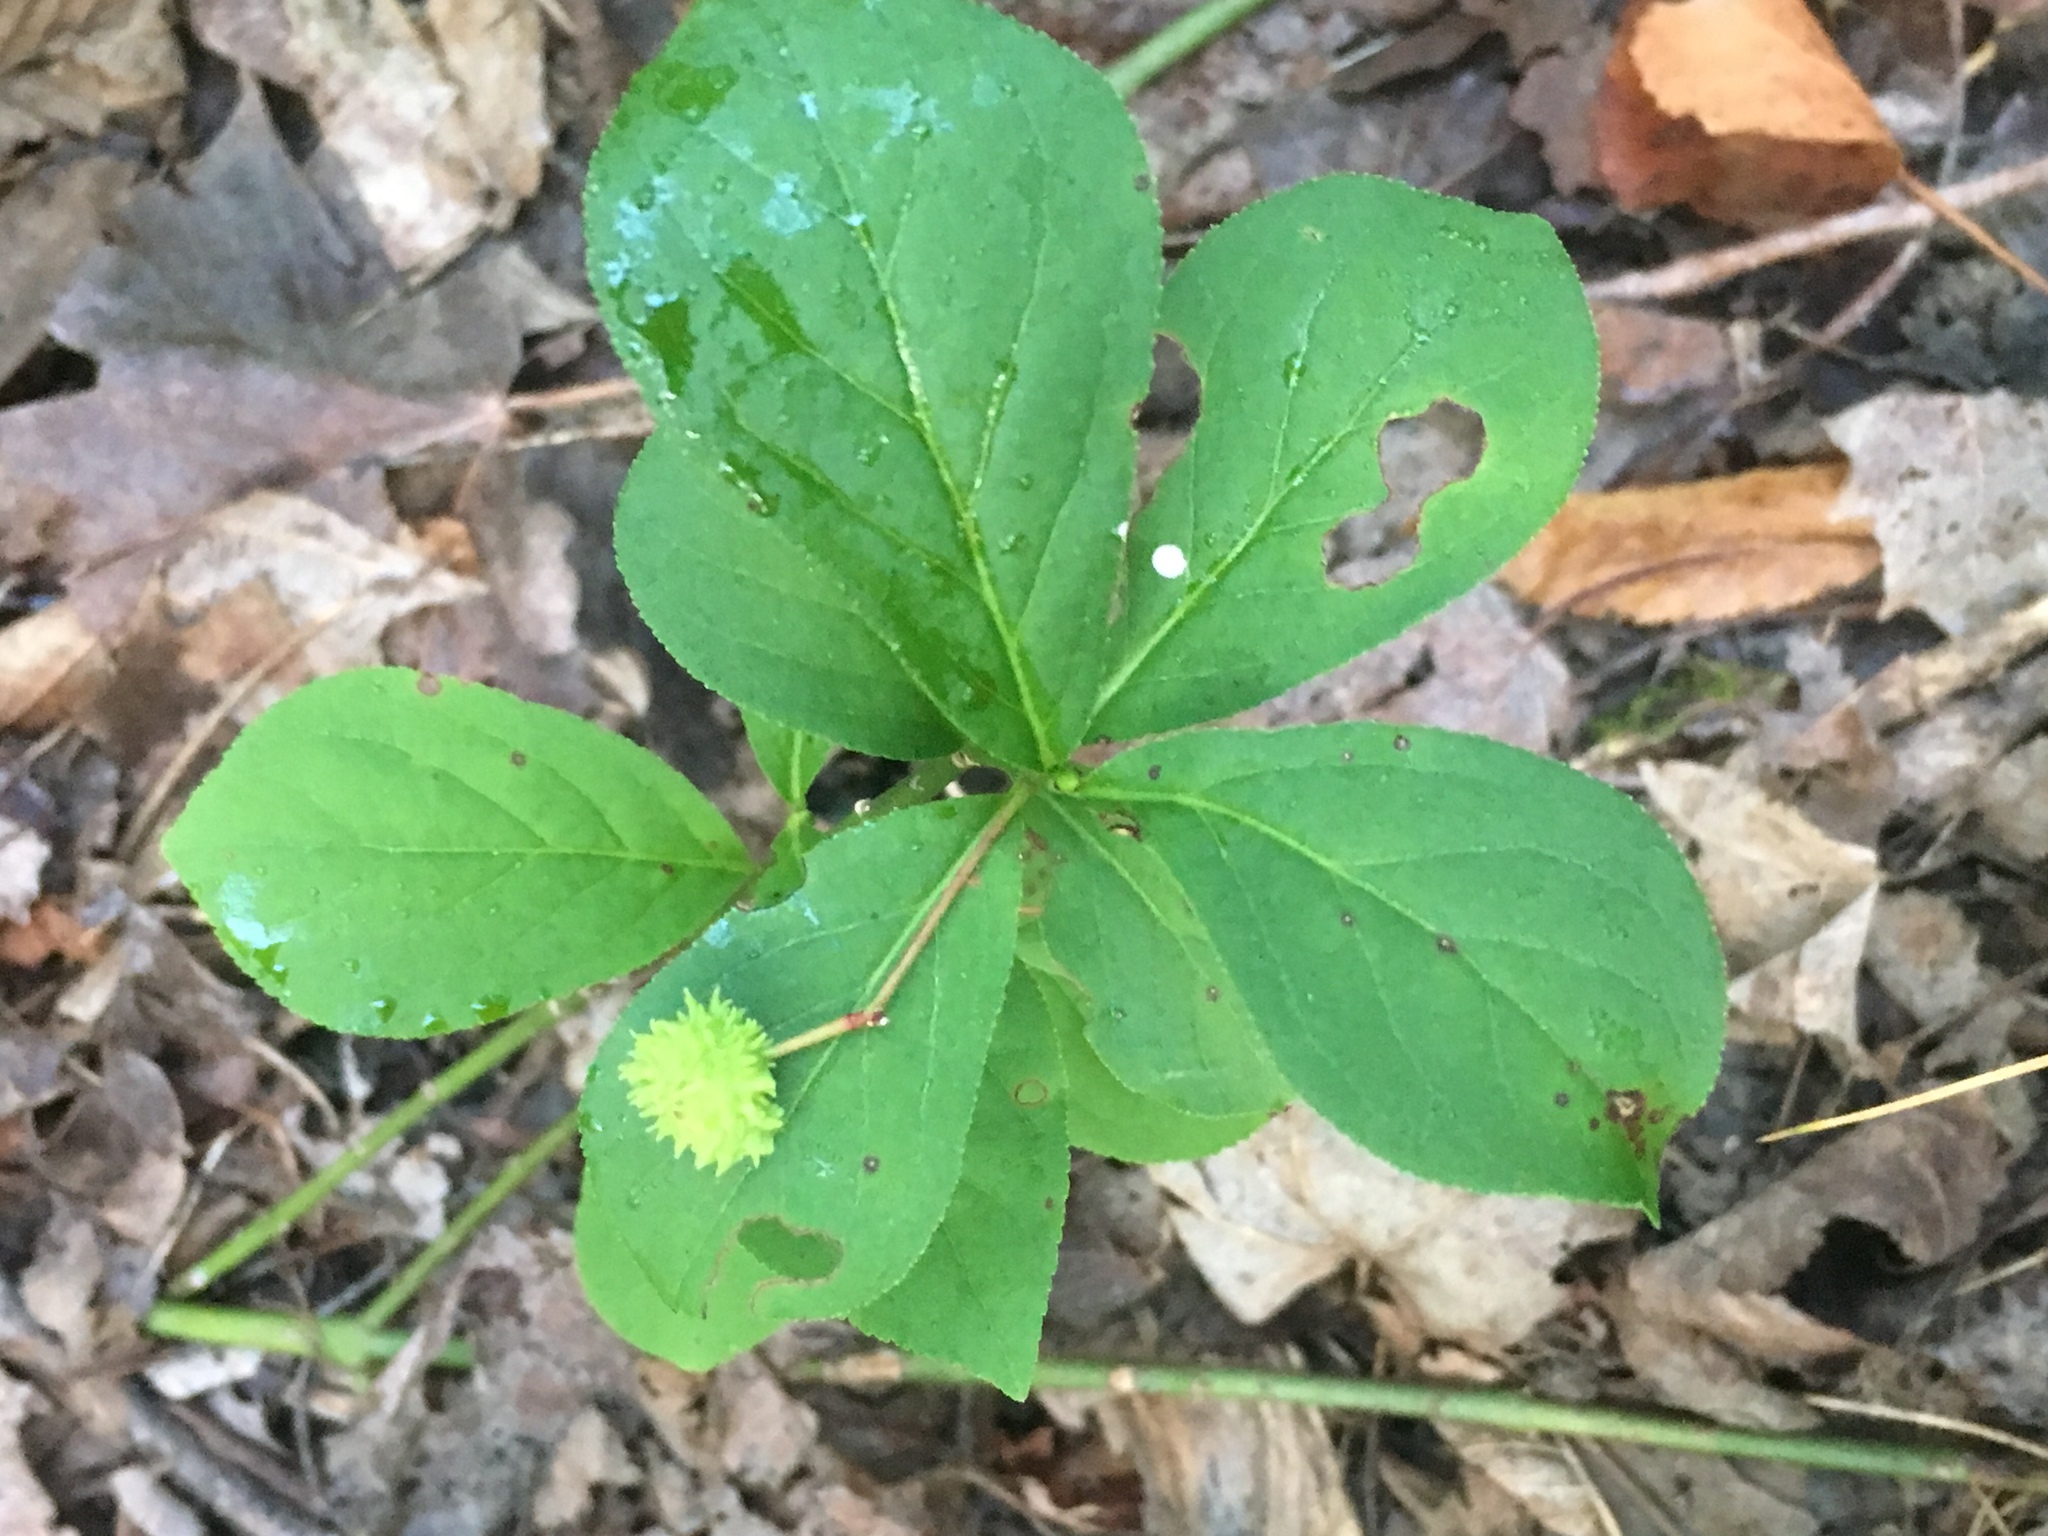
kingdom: Plantae
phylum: Tracheophyta
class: Magnoliopsida
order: Ericales
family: Primulaceae
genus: Lysimachia
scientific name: Lysimachia ciliata
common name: Fringed loosestrife
